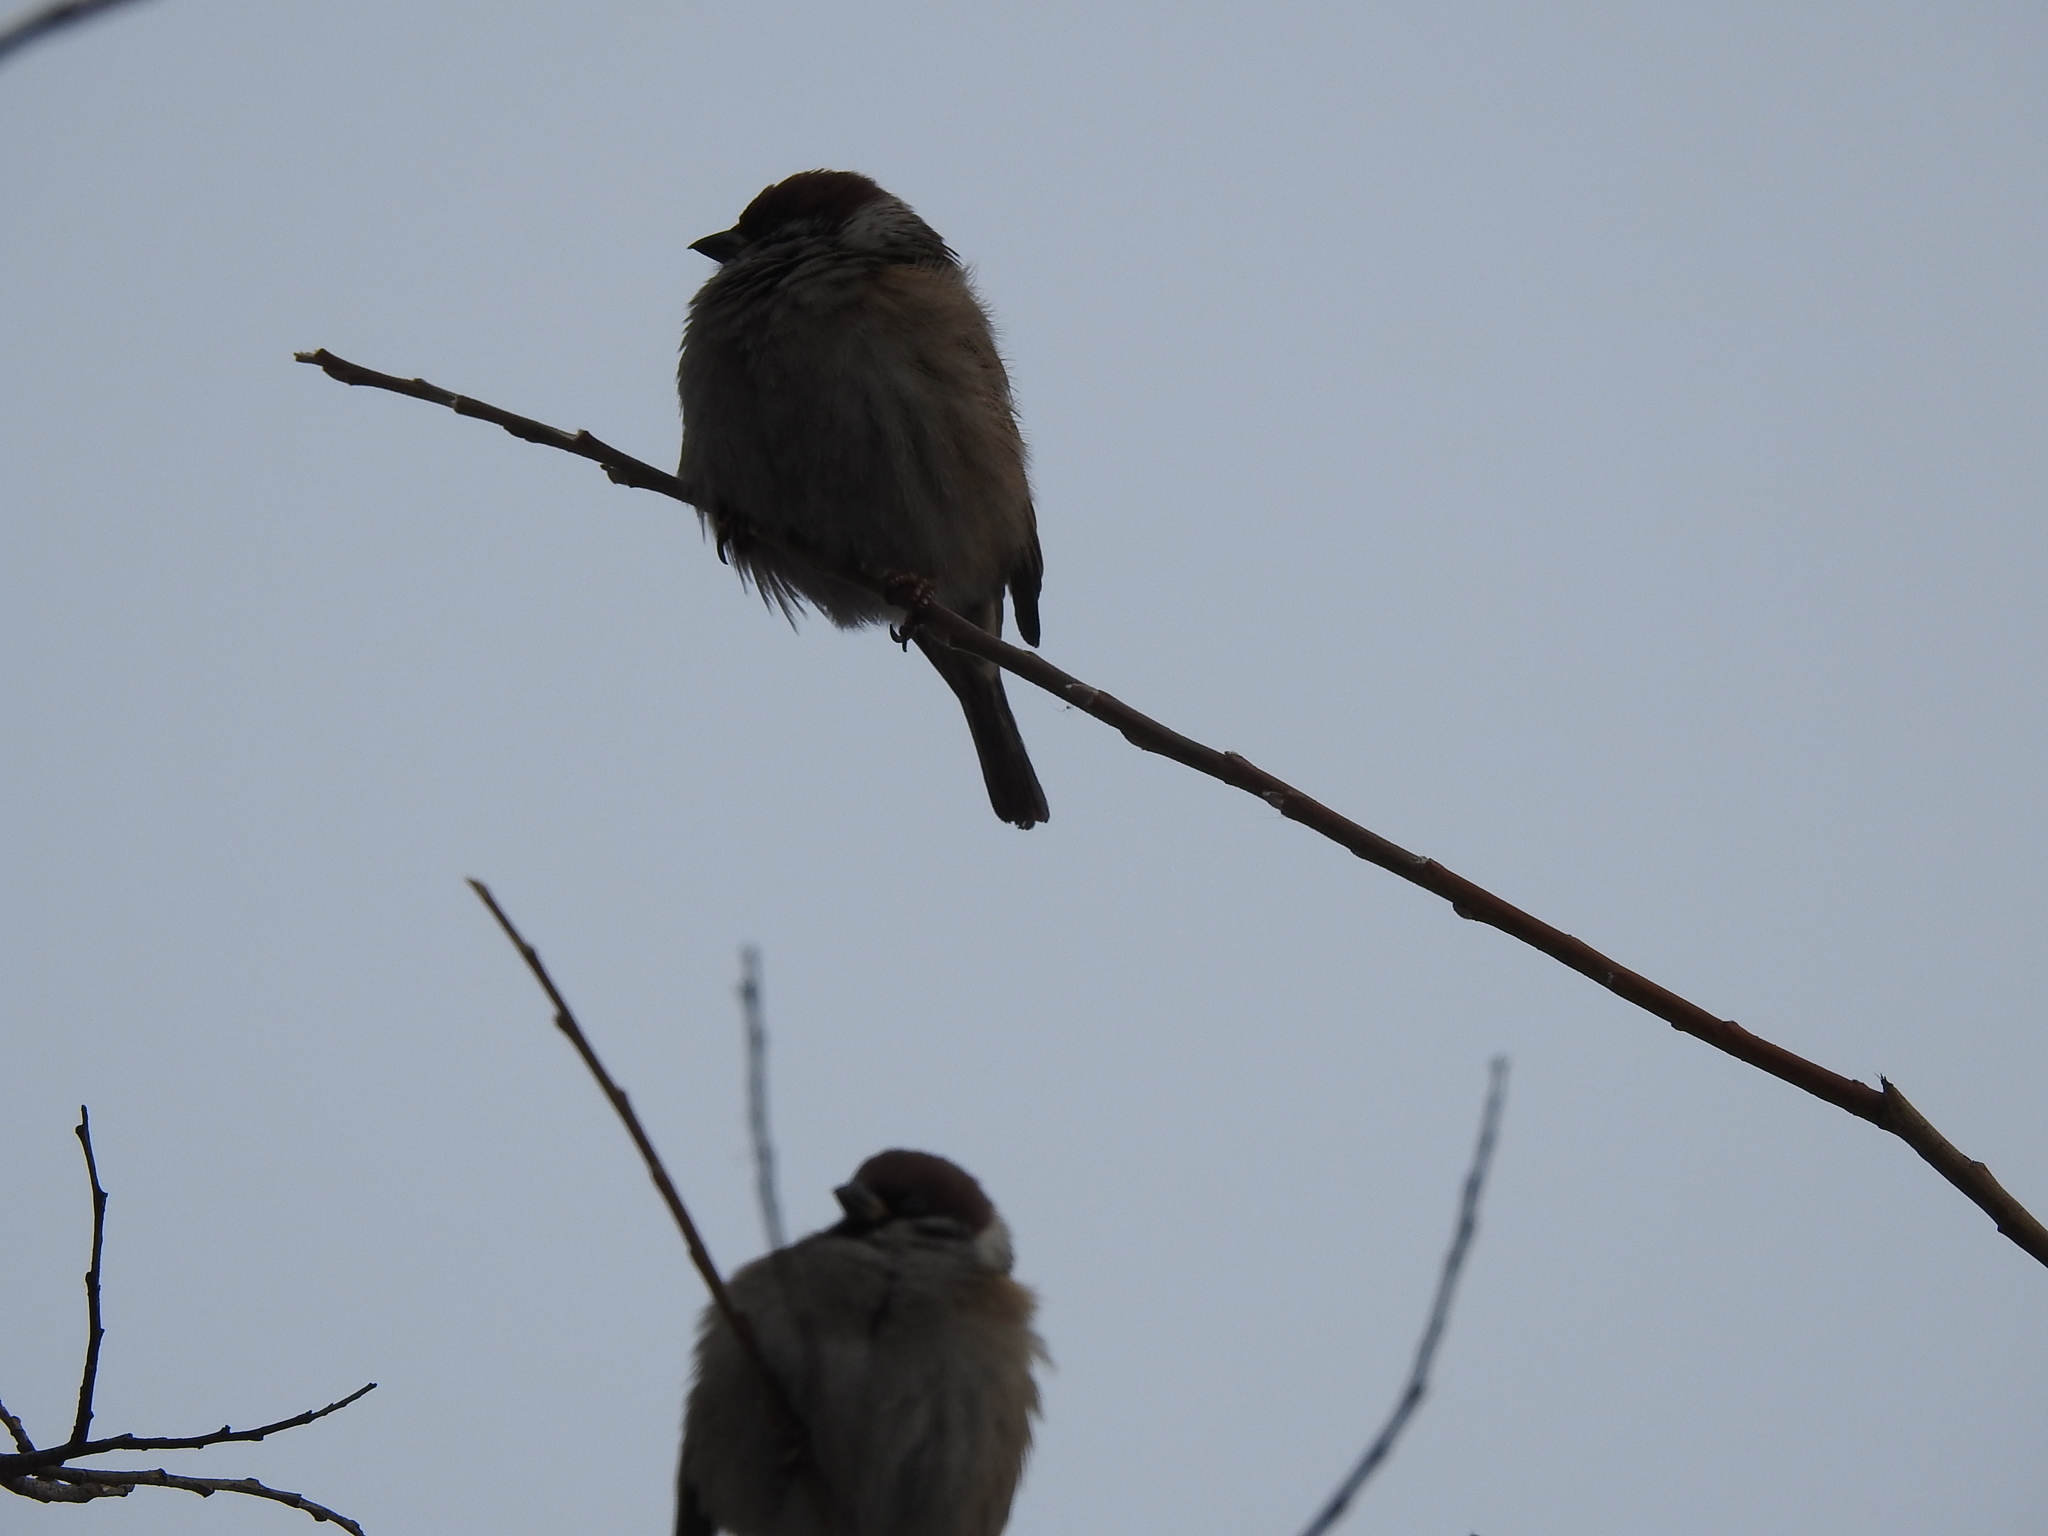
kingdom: Animalia
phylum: Chordata
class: Aves
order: Passeriformes
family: Passeridae
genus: Passer
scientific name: Passer montanus
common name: Eurasian tree sparrow
